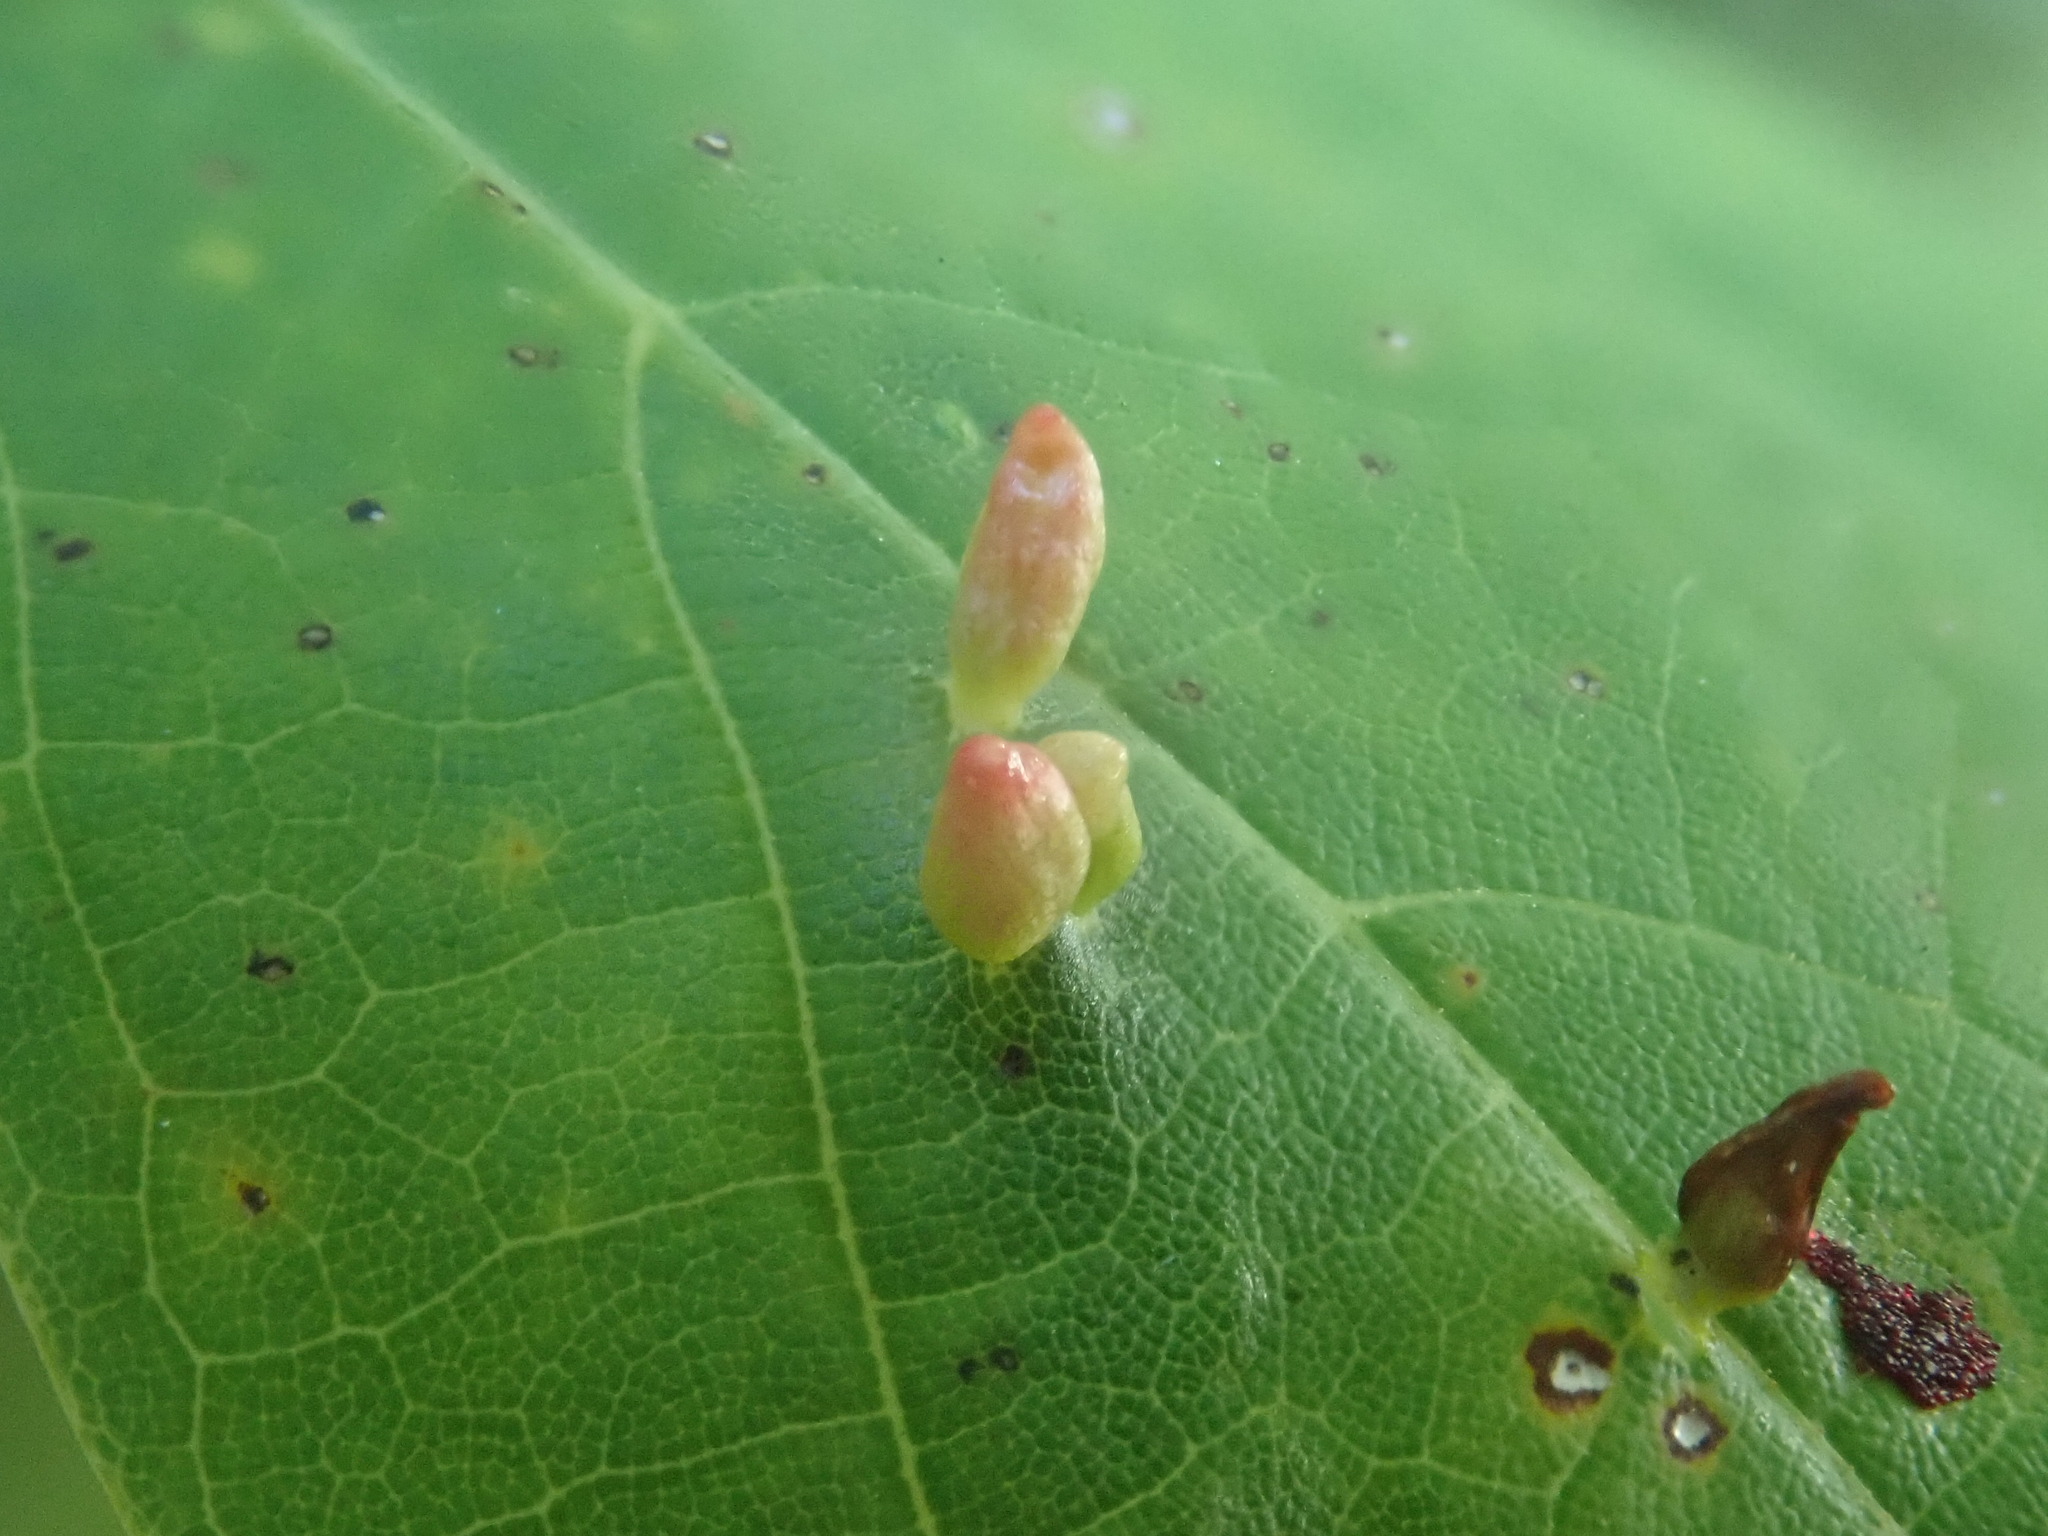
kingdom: Animalia
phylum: Arthropoda
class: Arachnida
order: Trombidiformes
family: Eriophyidae
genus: Vasates
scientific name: Vasates aceriscrumena
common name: Maple spindle gall mite
